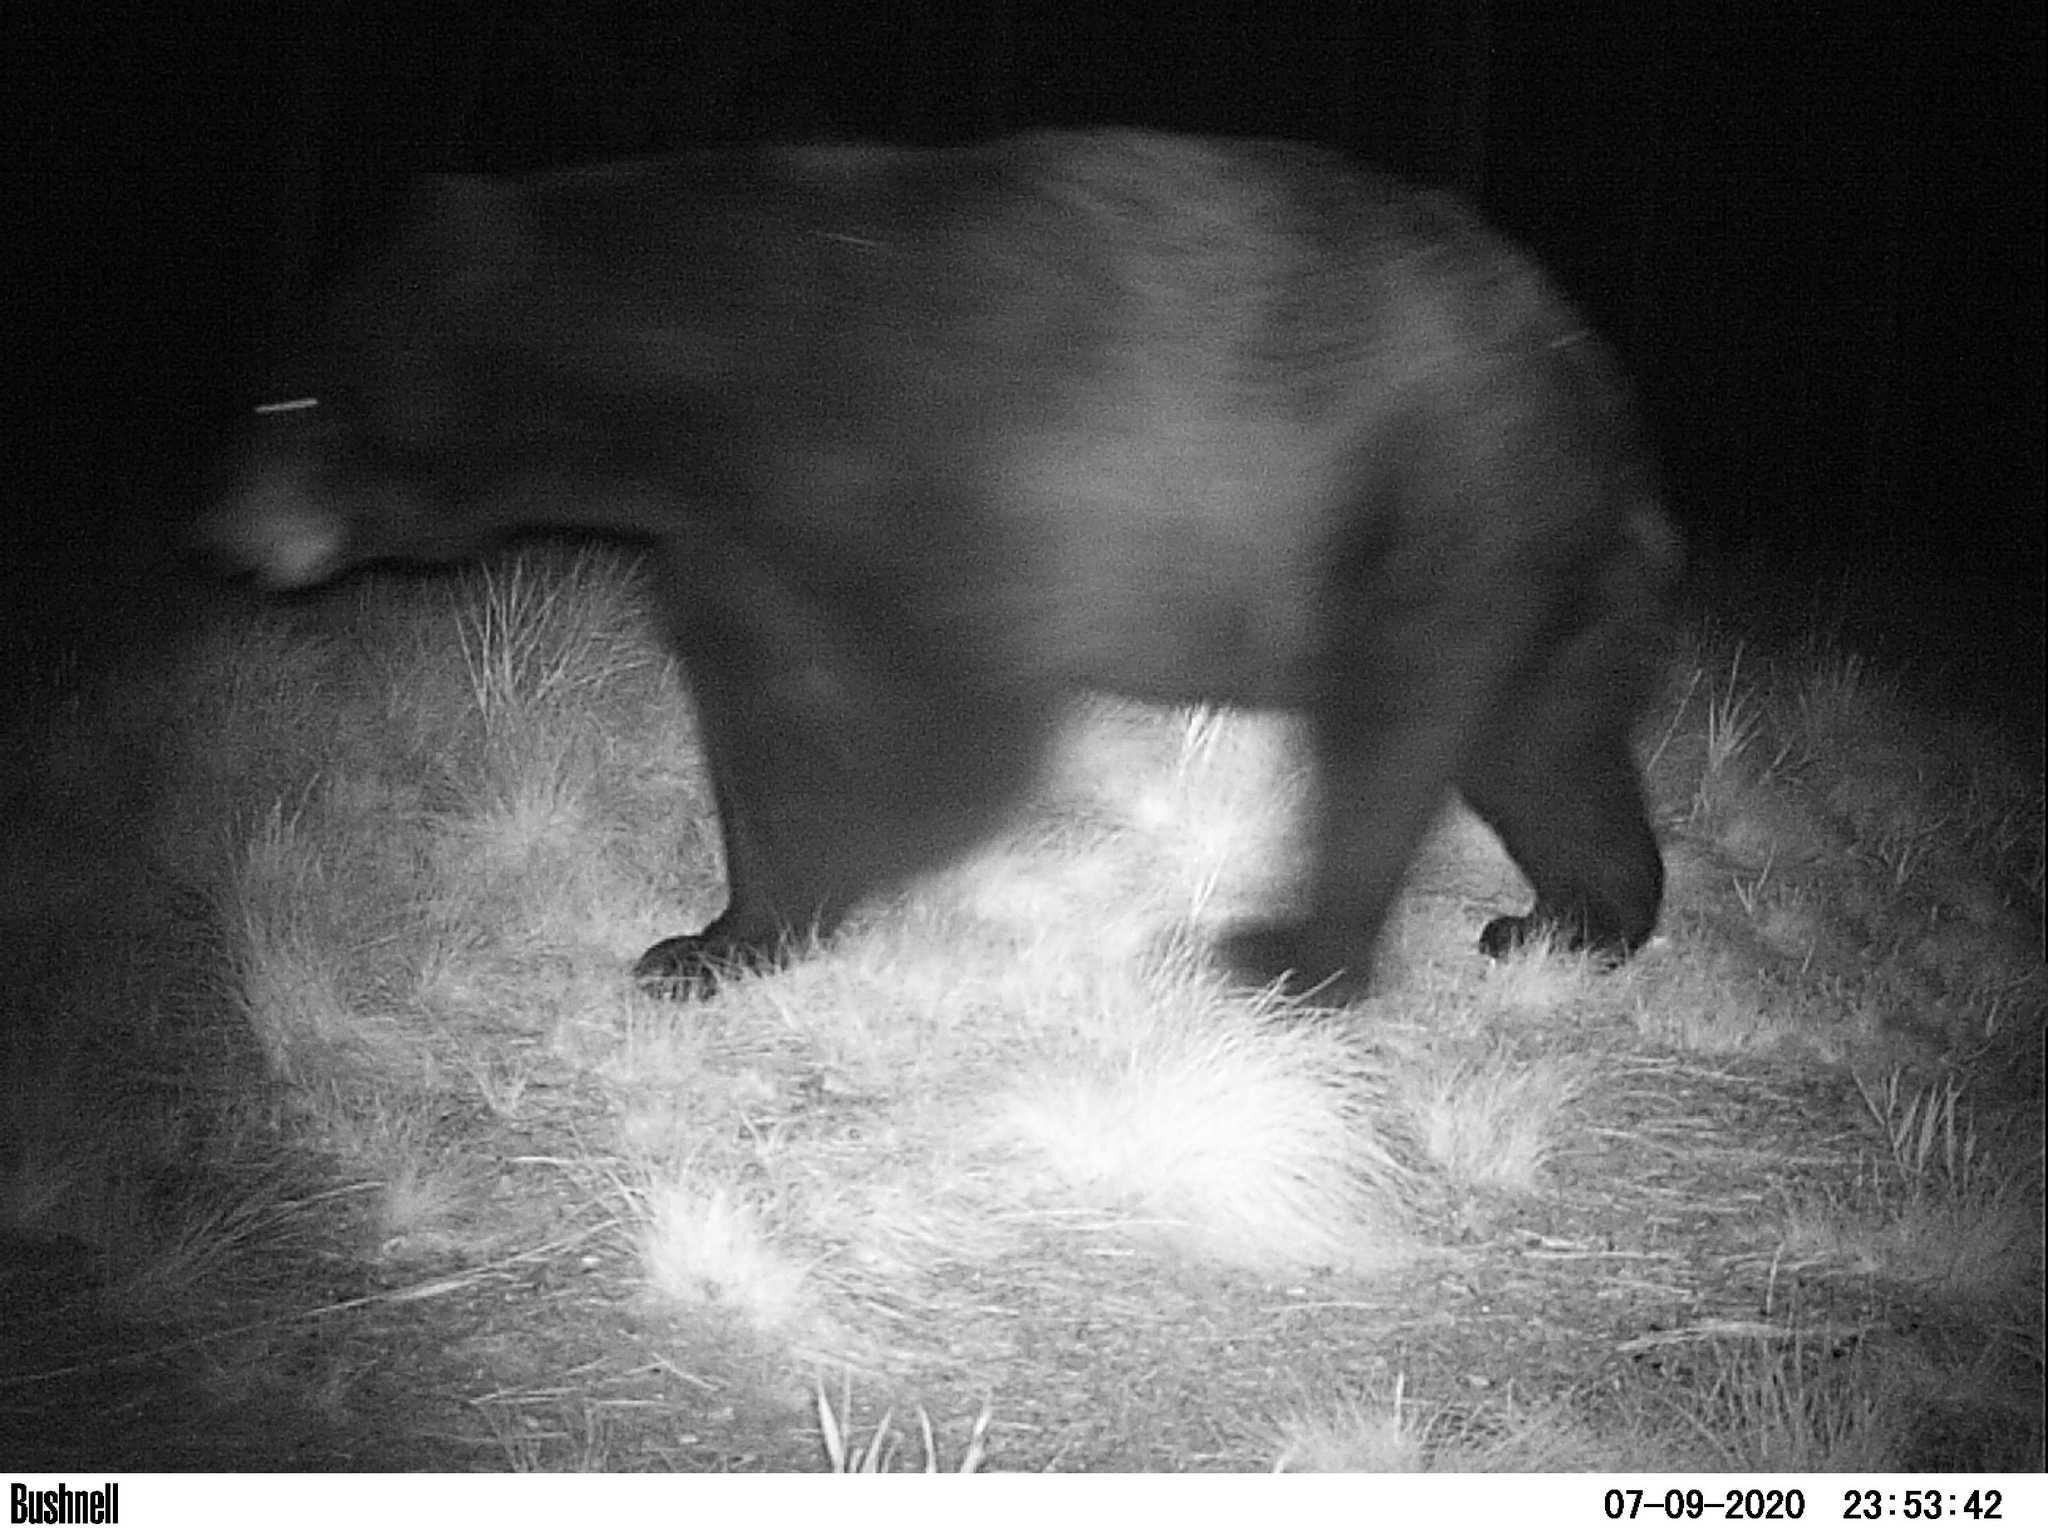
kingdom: Animalia
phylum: Chordata
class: Mammalia
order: Carnivora
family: Ursidae
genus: Ursus
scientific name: Ursus americanus
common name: American black bear
